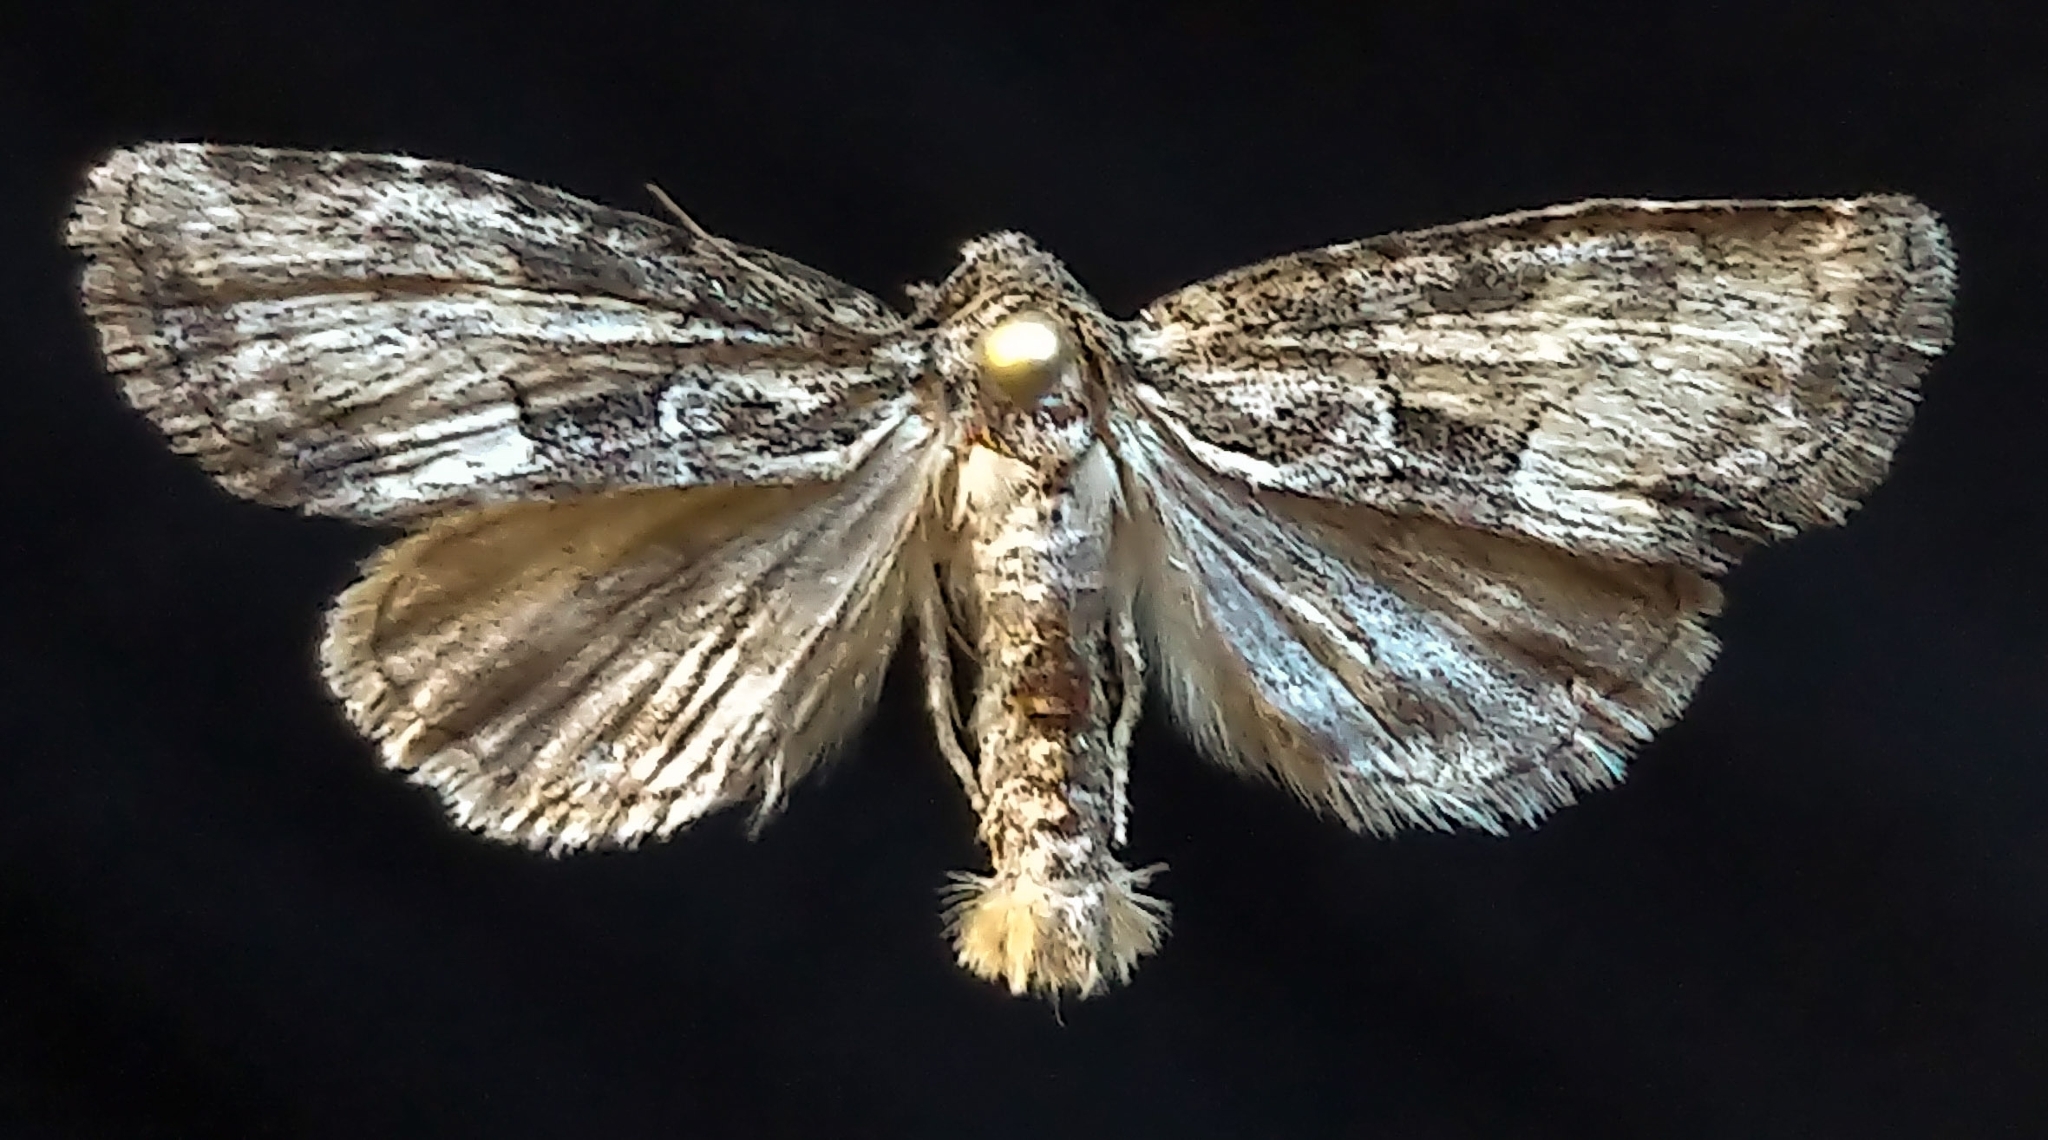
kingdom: Animalia
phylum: Arthropoda
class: Insecta
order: Lepidoptera
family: Noctuidae
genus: Neoligia
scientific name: Neoligia subjuncta
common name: Connected brocade
